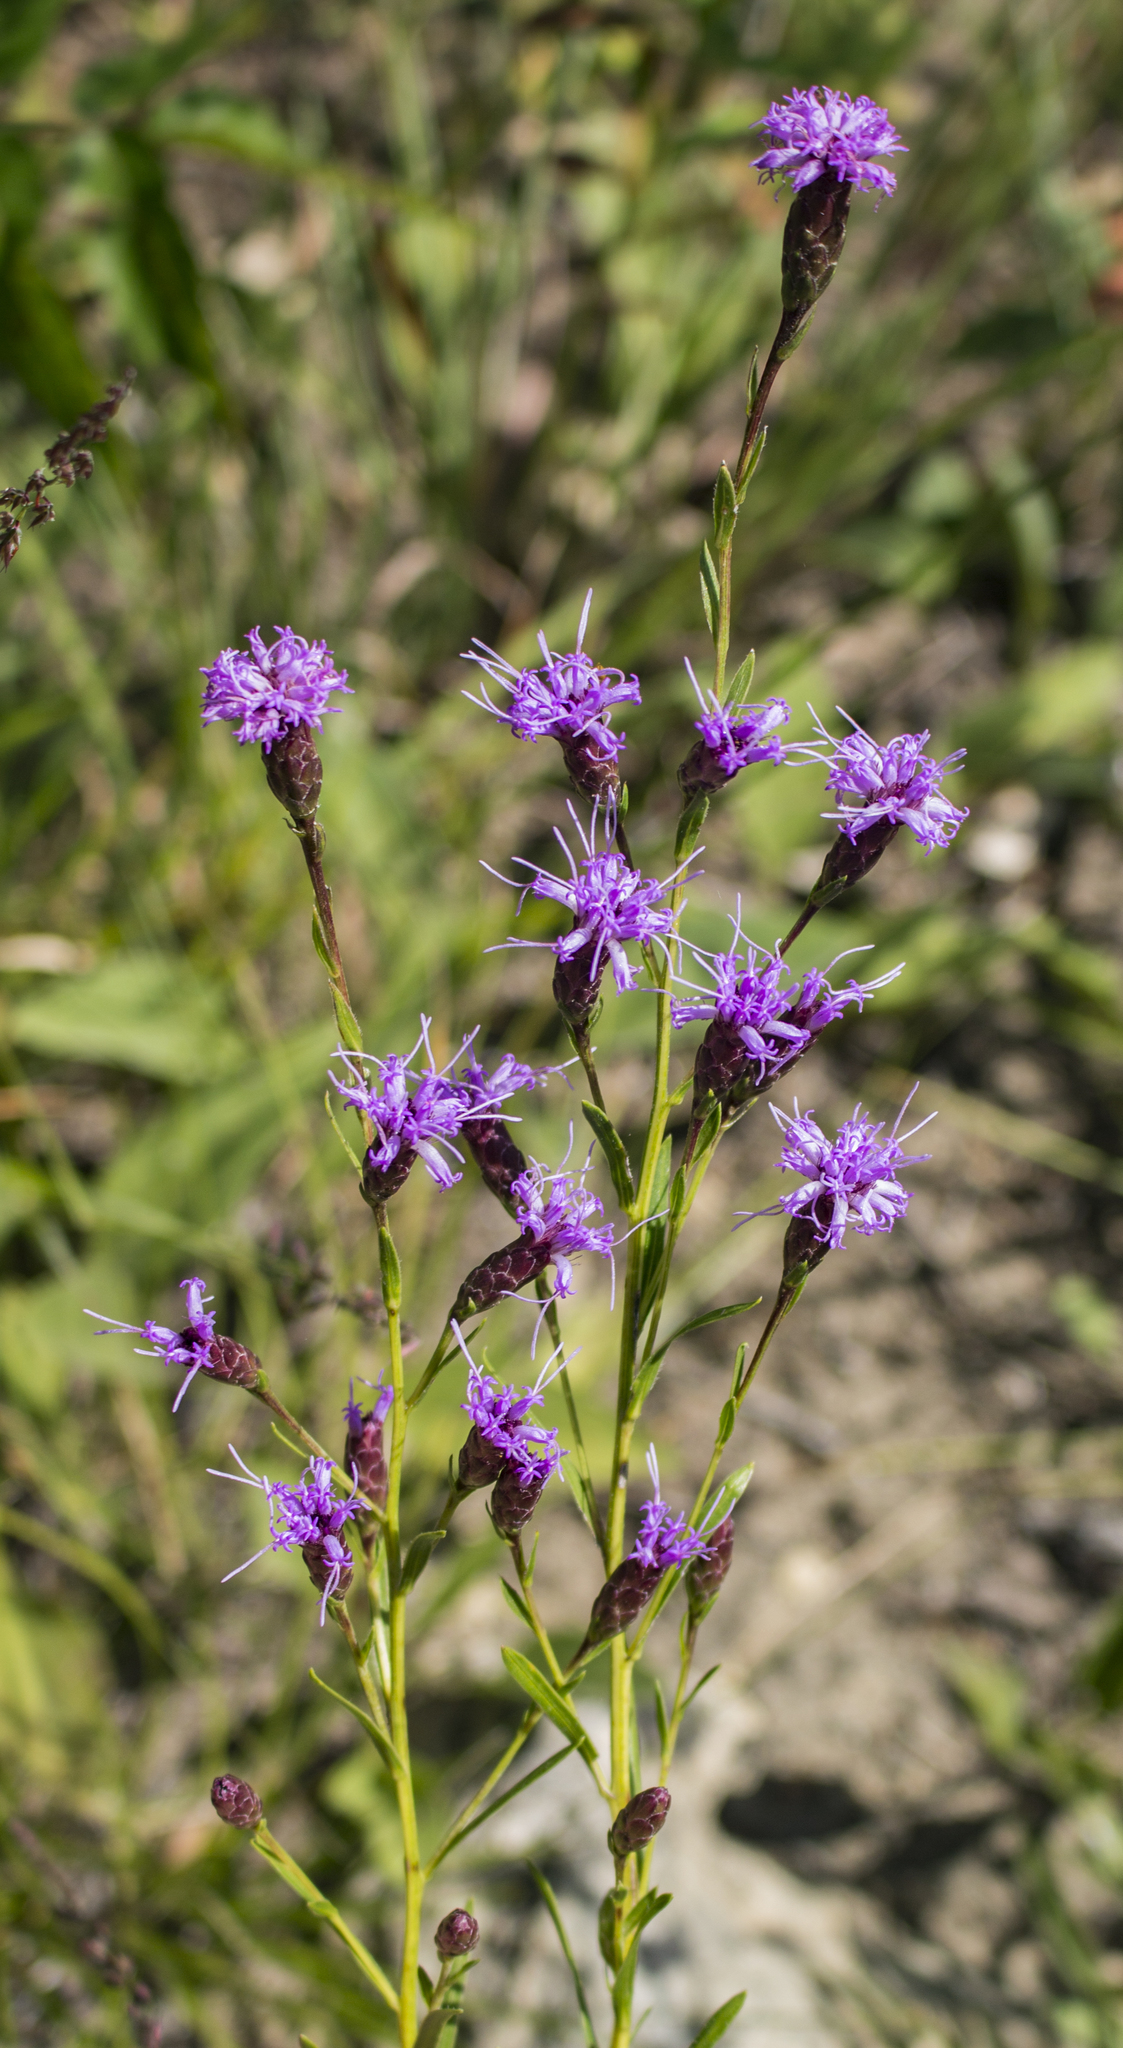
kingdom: Plantae
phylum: Tracheophyta
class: Magnoliopsida
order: Asterales
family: Asteraceae
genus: Liatris
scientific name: Liatris cylindracea
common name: Few-head blazingstar
